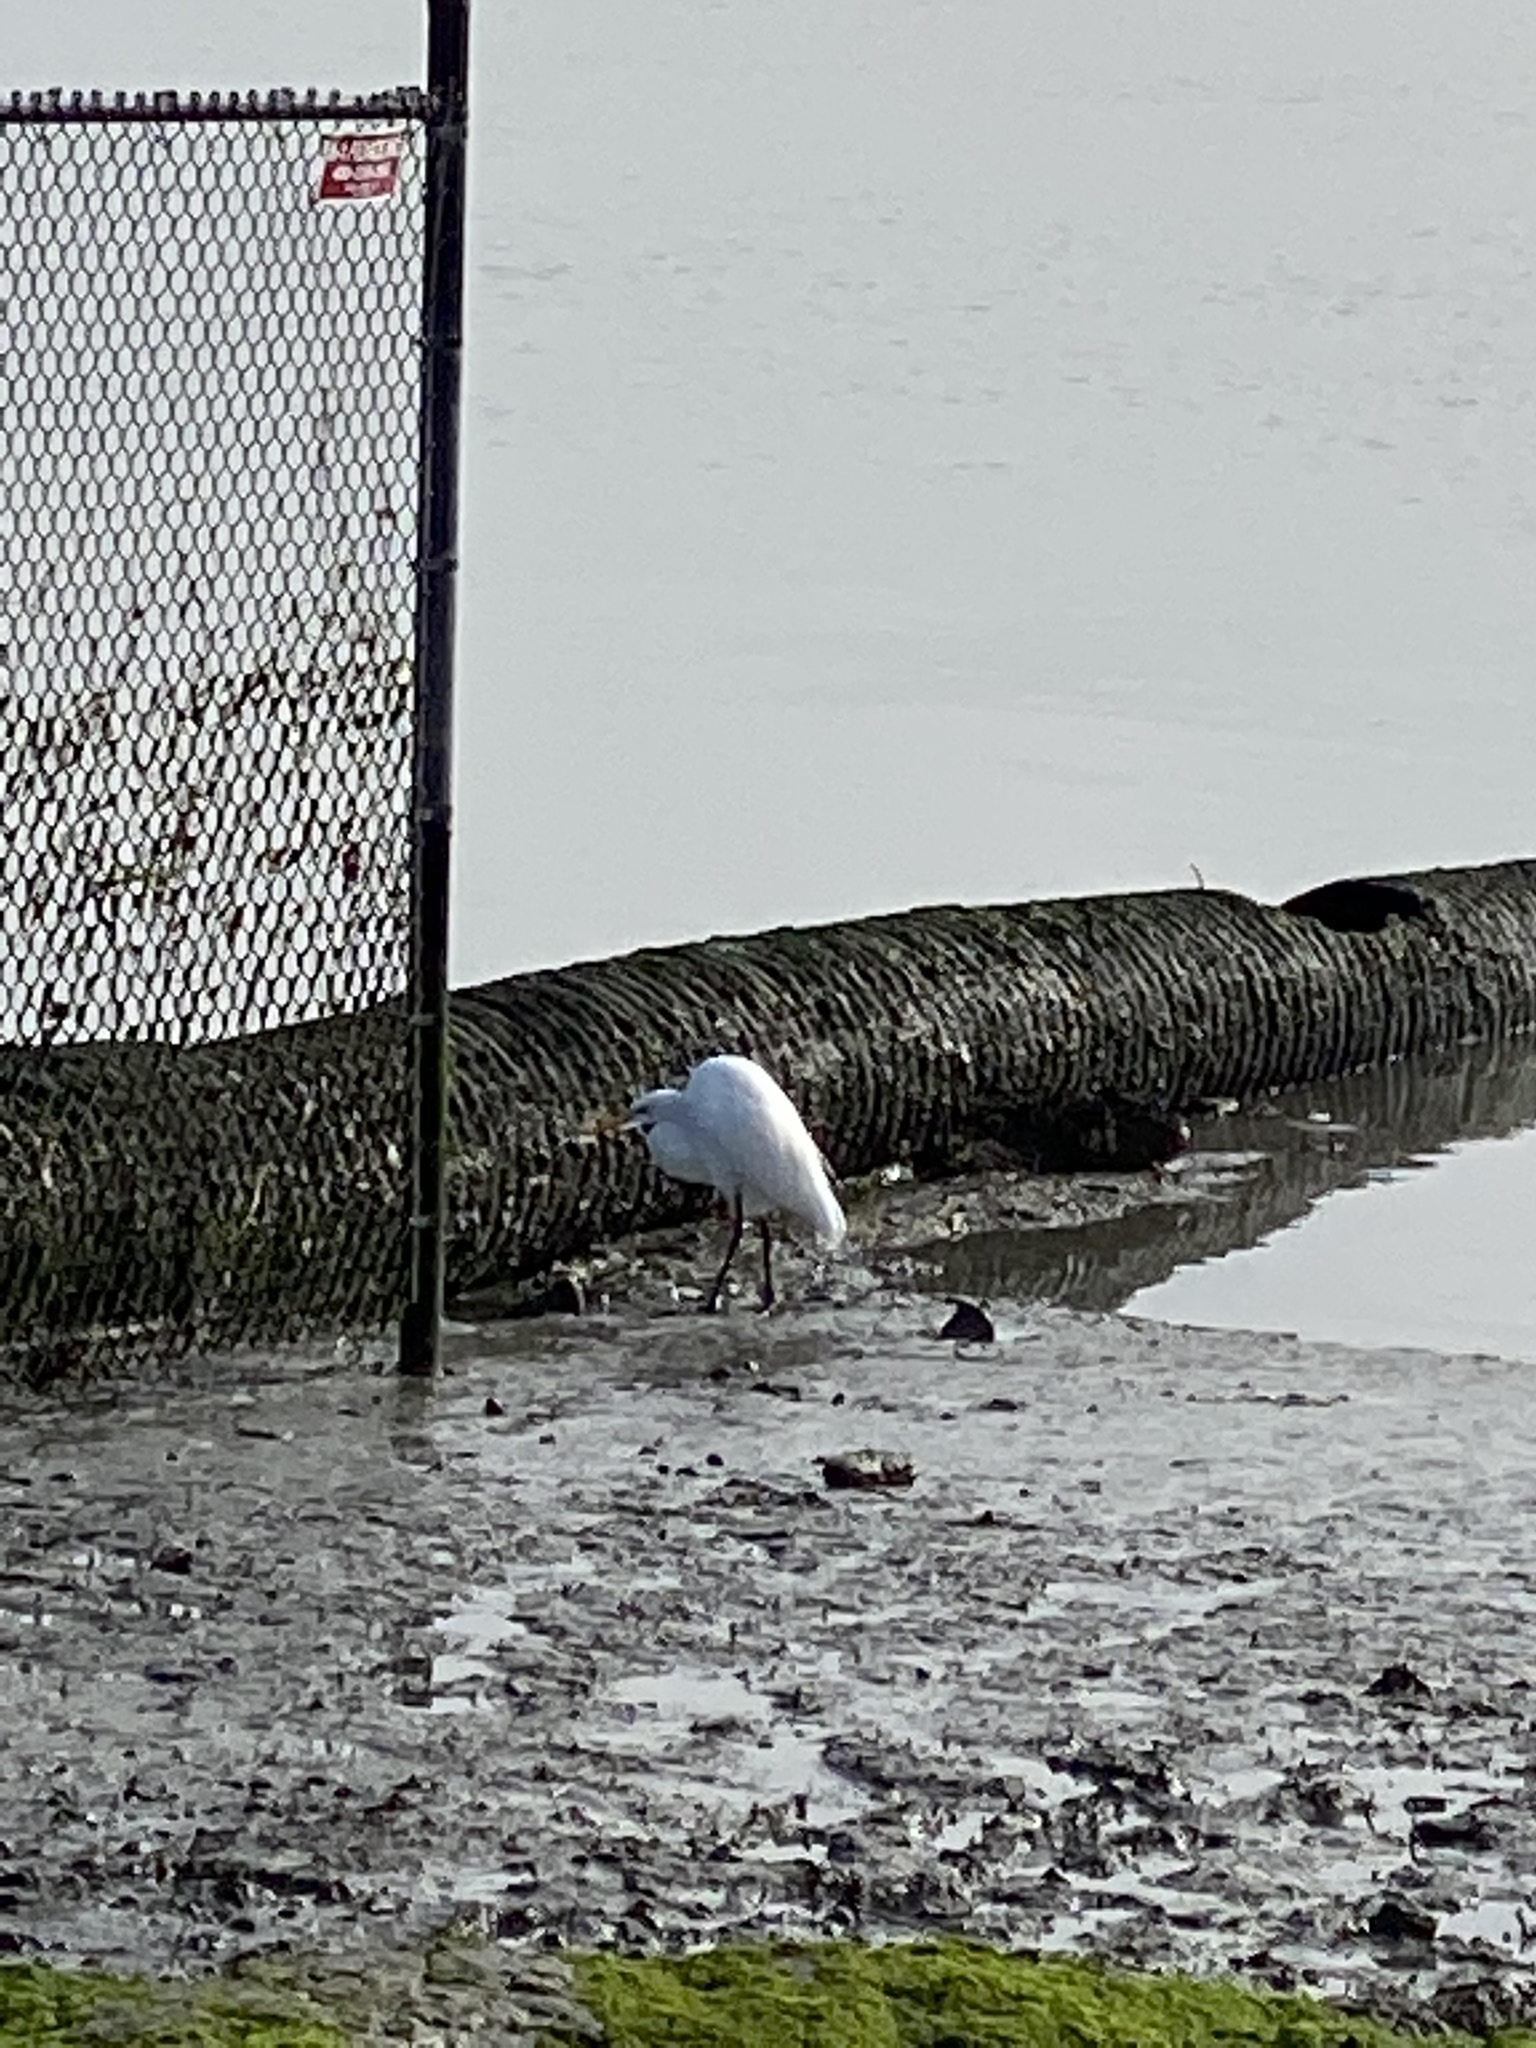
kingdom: Animalia
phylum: Chordata
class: Aves
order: Pelecaniformes
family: Ardeidae
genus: Ardea
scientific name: Ardea alba
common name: Great egret
